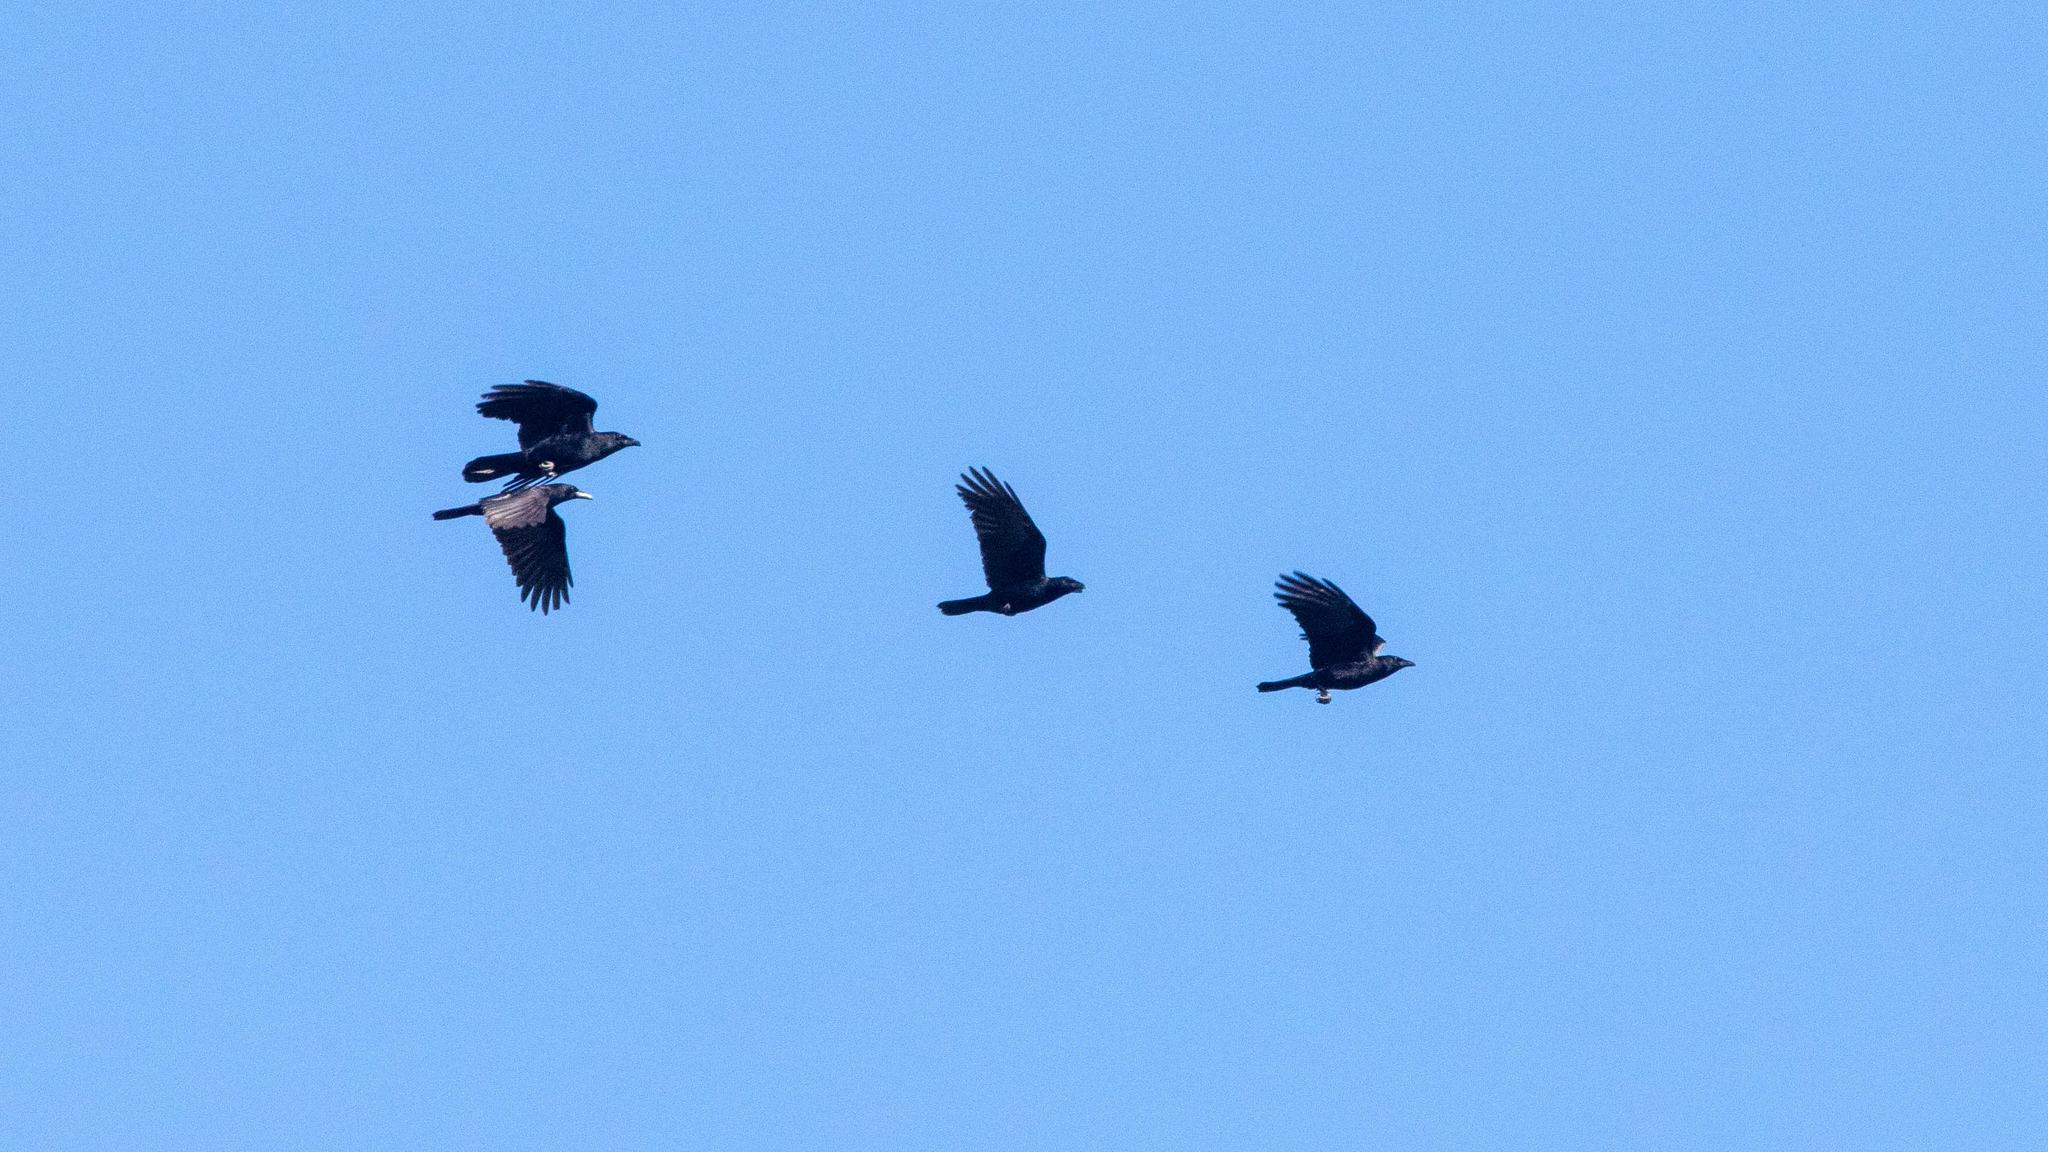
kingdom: Animalia
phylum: Chordata
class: Aves
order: Passeriformes
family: Corvidae
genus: Corvus
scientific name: Corvus brachyrhynchos
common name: American crow
